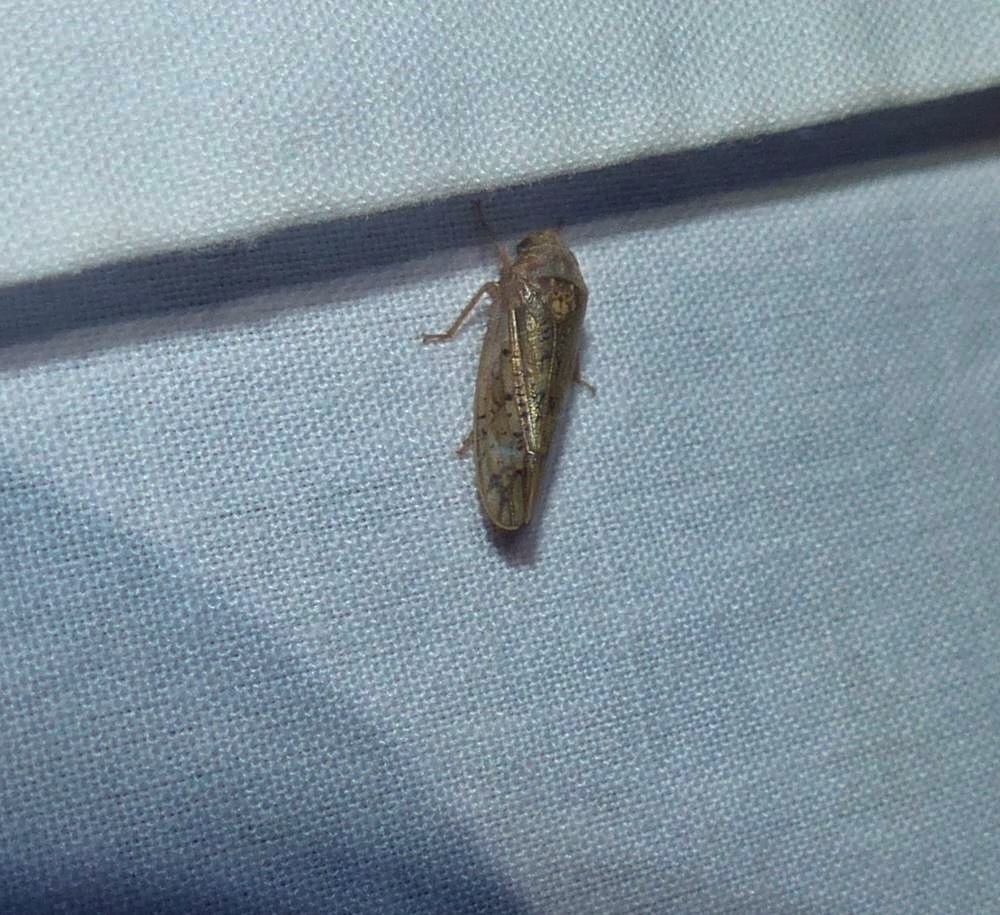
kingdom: Animalia
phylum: Arthropoda
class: Insecta
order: Hemiptera
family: Cicadellidae
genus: Ponana
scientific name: Ponana rubida
